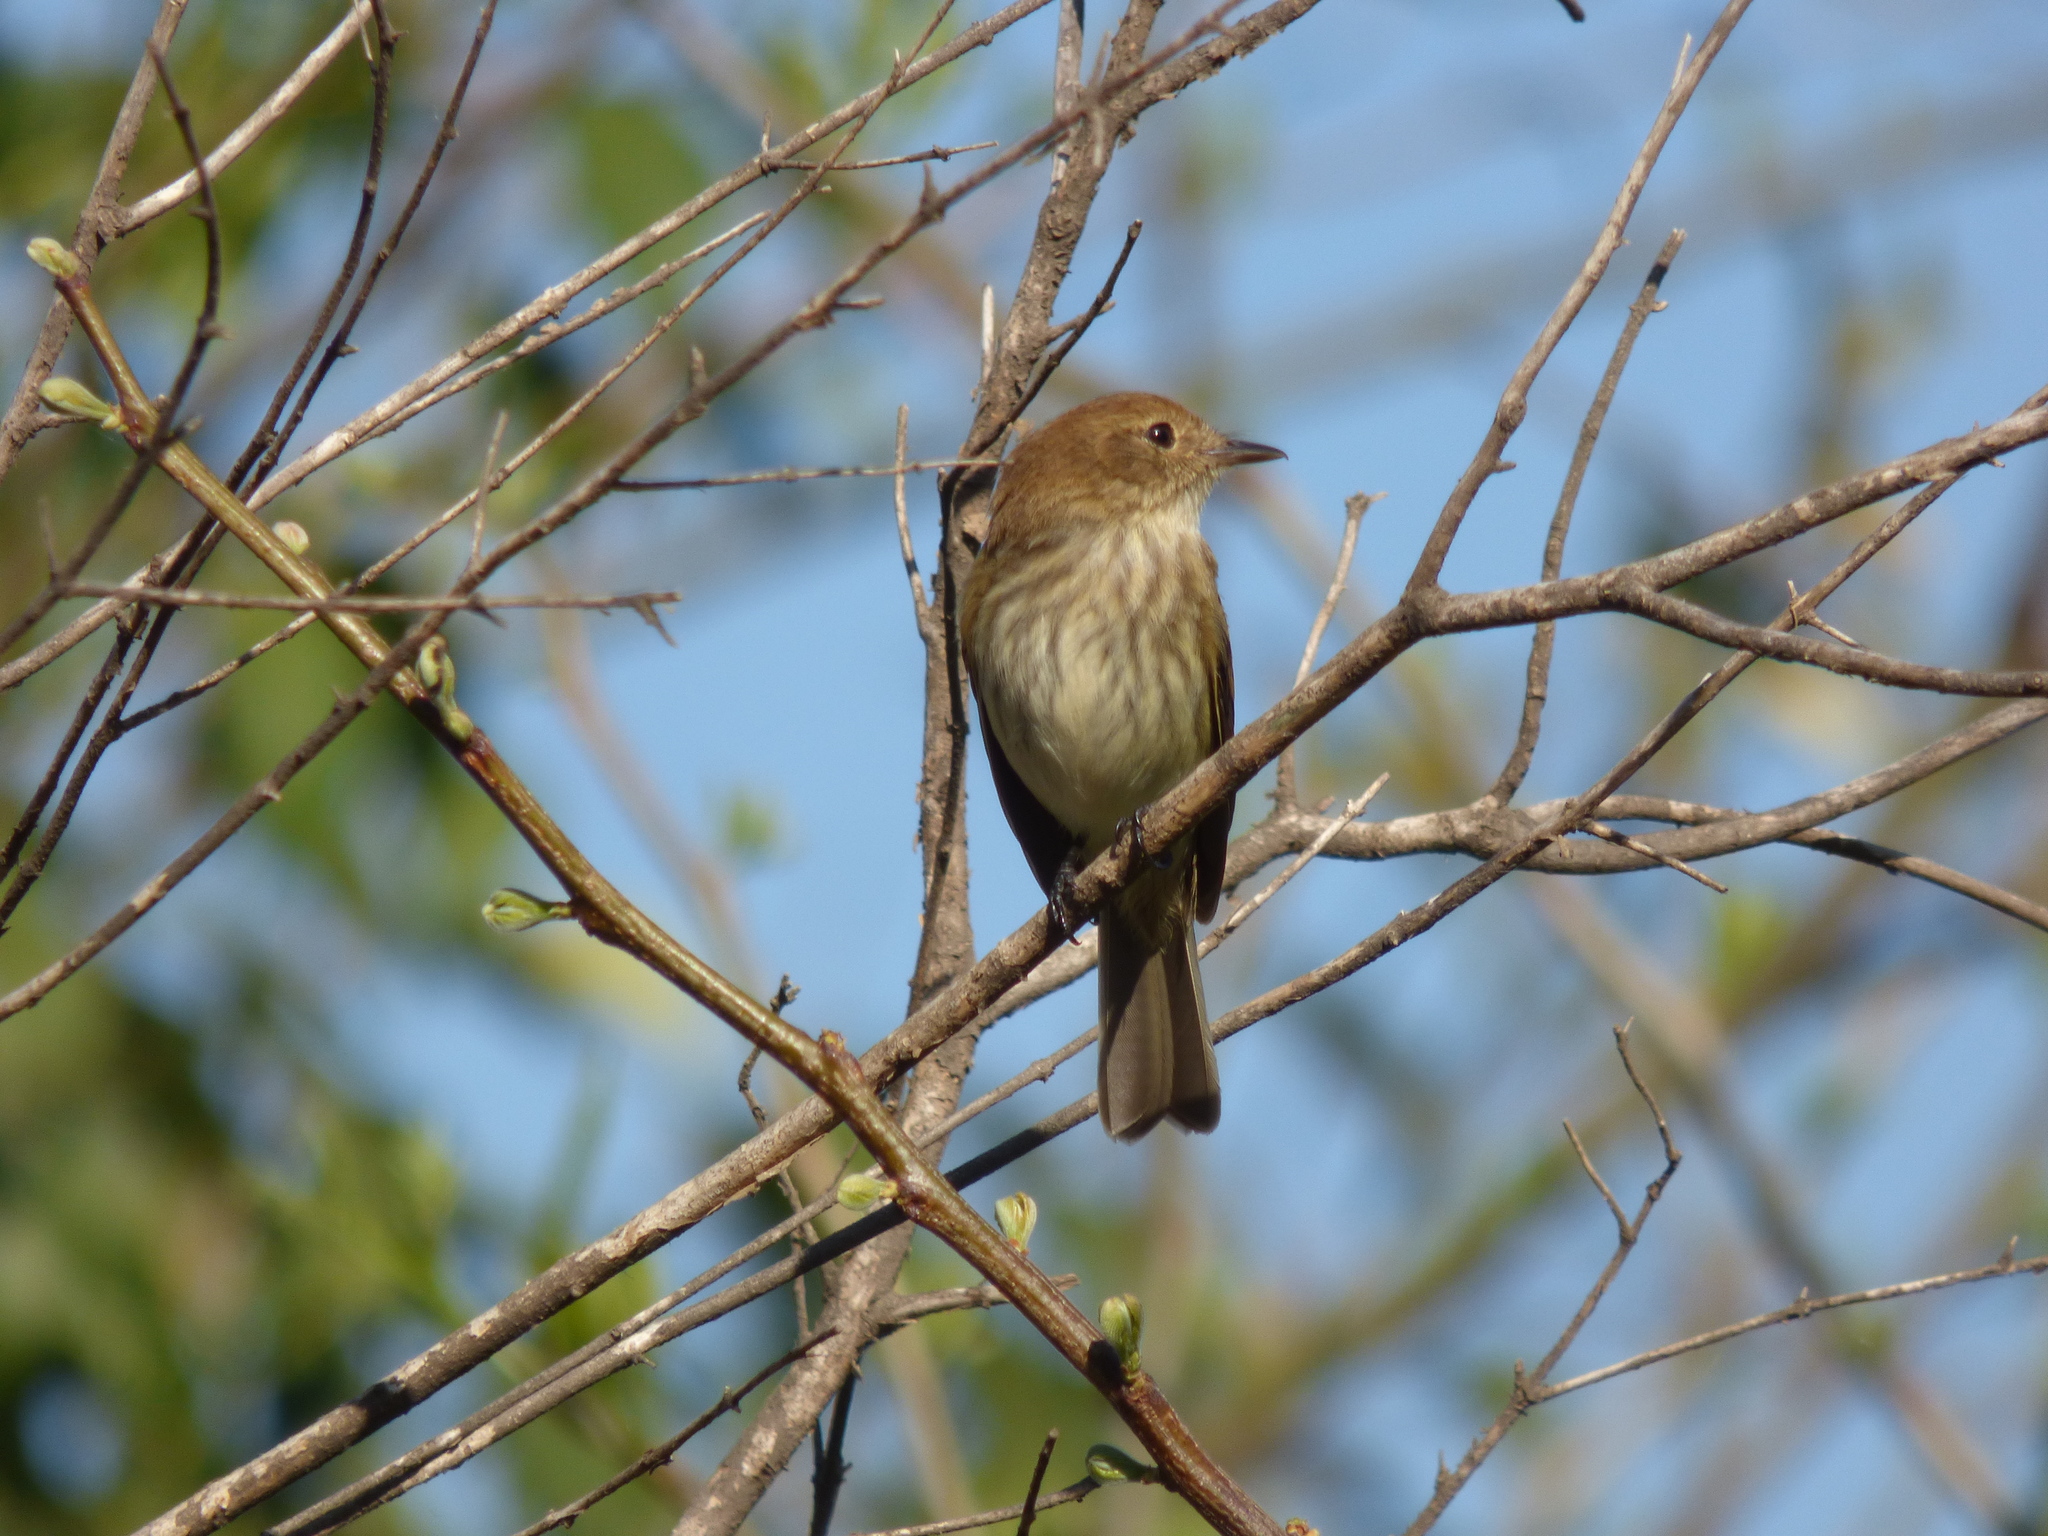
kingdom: Animalia
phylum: Chordata
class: Aves
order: Passeriformes
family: Tyrannidae
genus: Myiophobus
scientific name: Myiophobus fasciatus
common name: Bran-colored flycatcher
